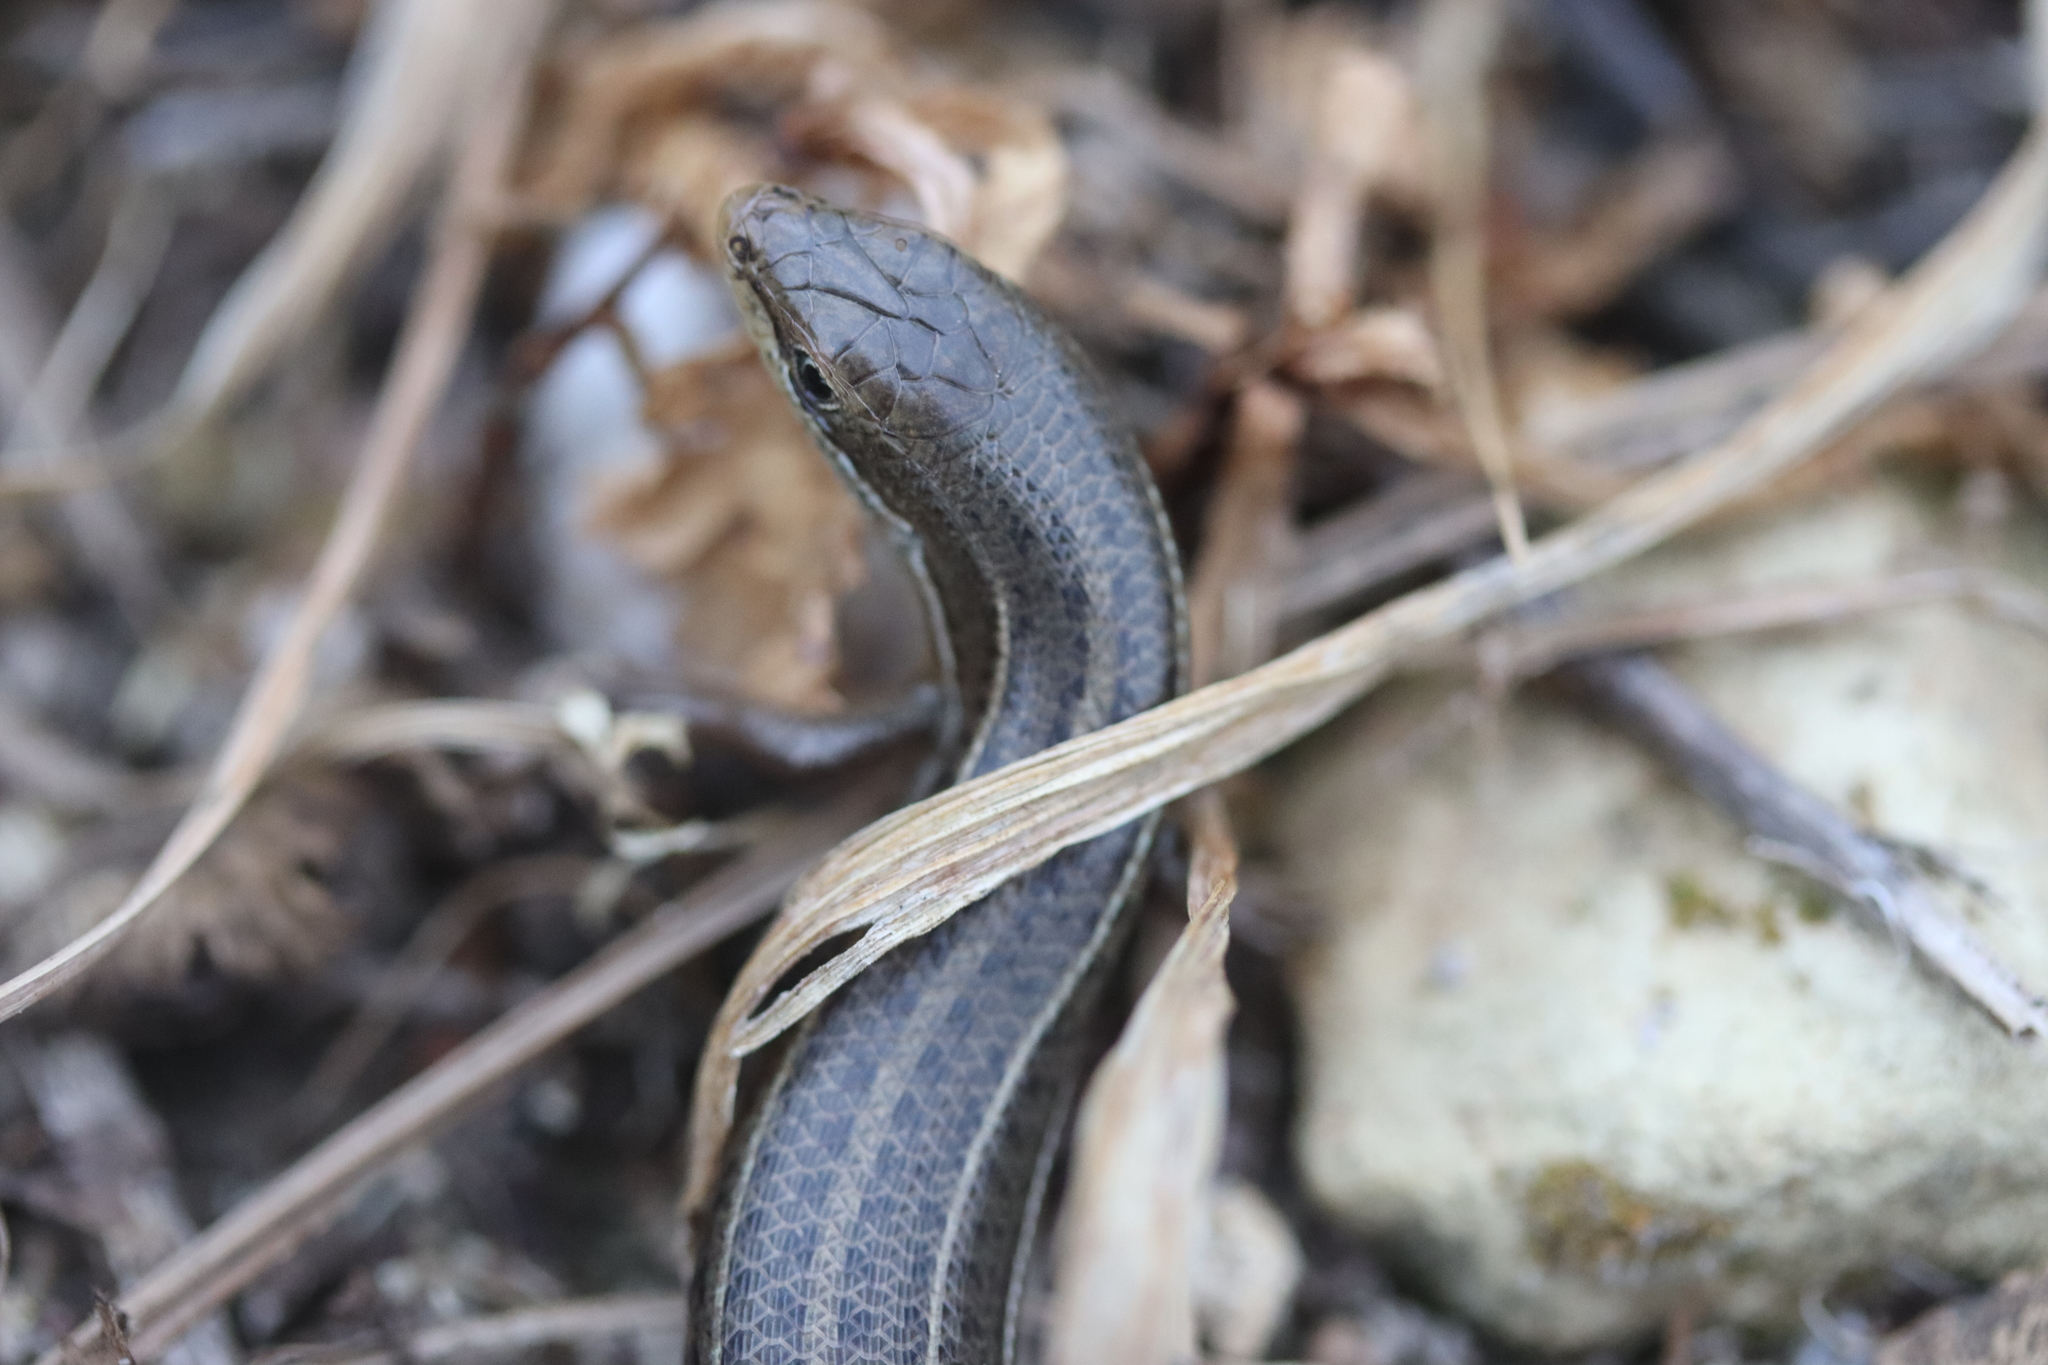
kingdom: Animalia
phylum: Chordata
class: Squamata
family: Scincidae
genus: Heremites
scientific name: Heremites vittatus
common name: Bridled mabuya
